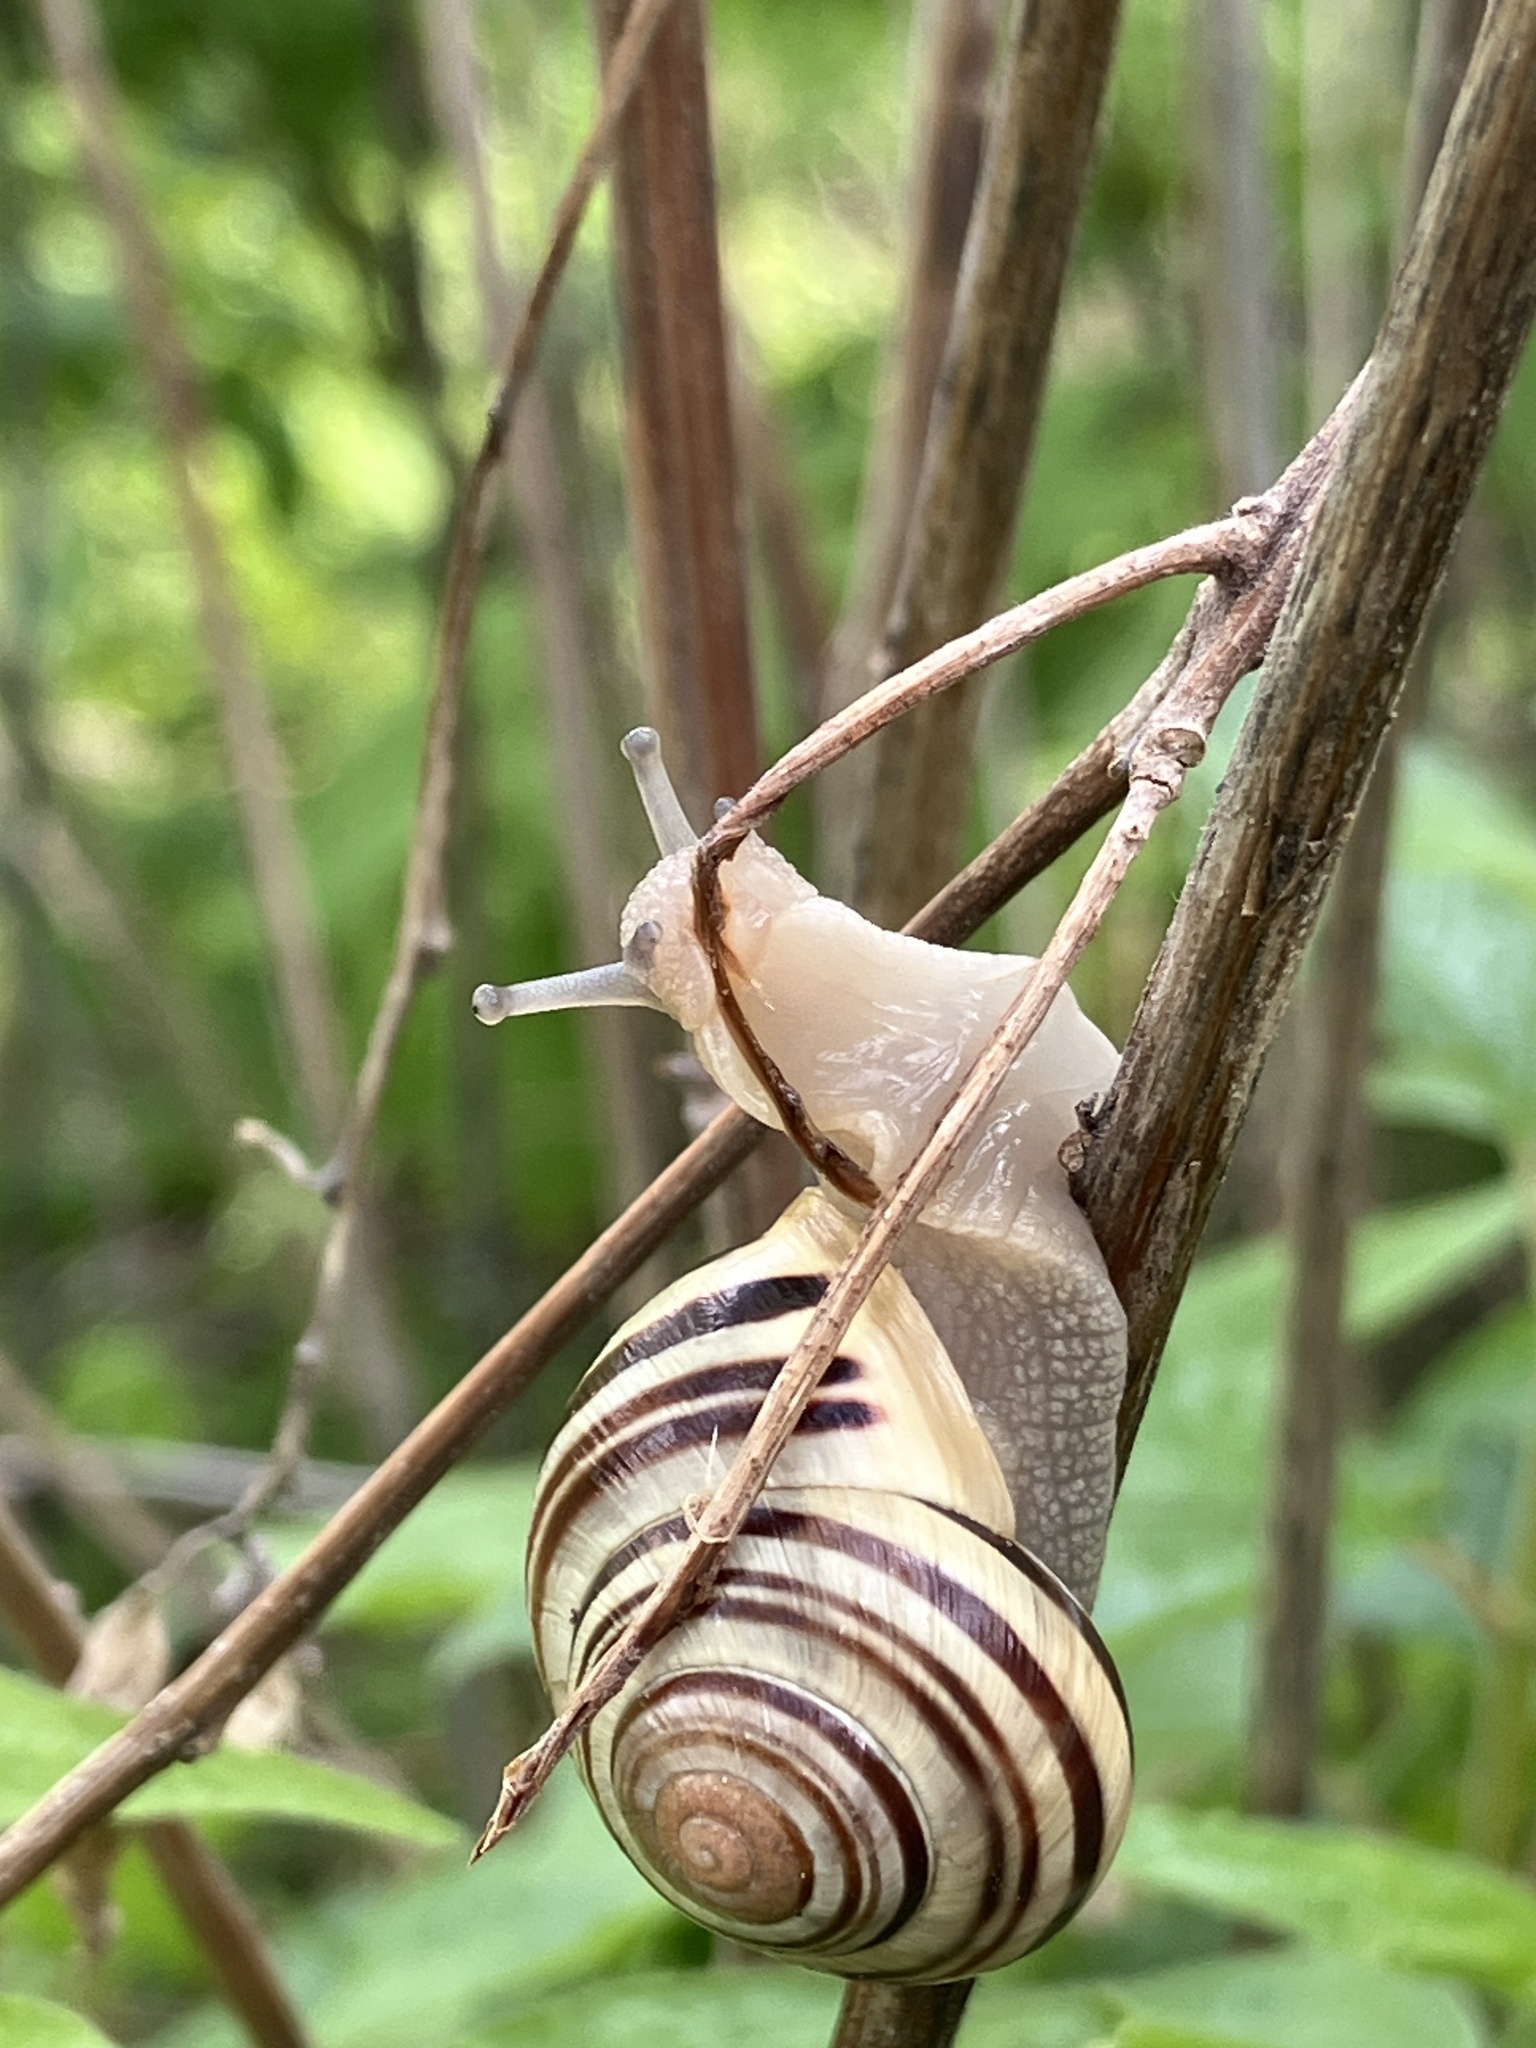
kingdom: Animalia
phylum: Mollusca
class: Gastropoda
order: Stylommatophora
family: Helicidae
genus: Cepaea
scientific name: Cepaea hortensis
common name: White-lip gardensnail
